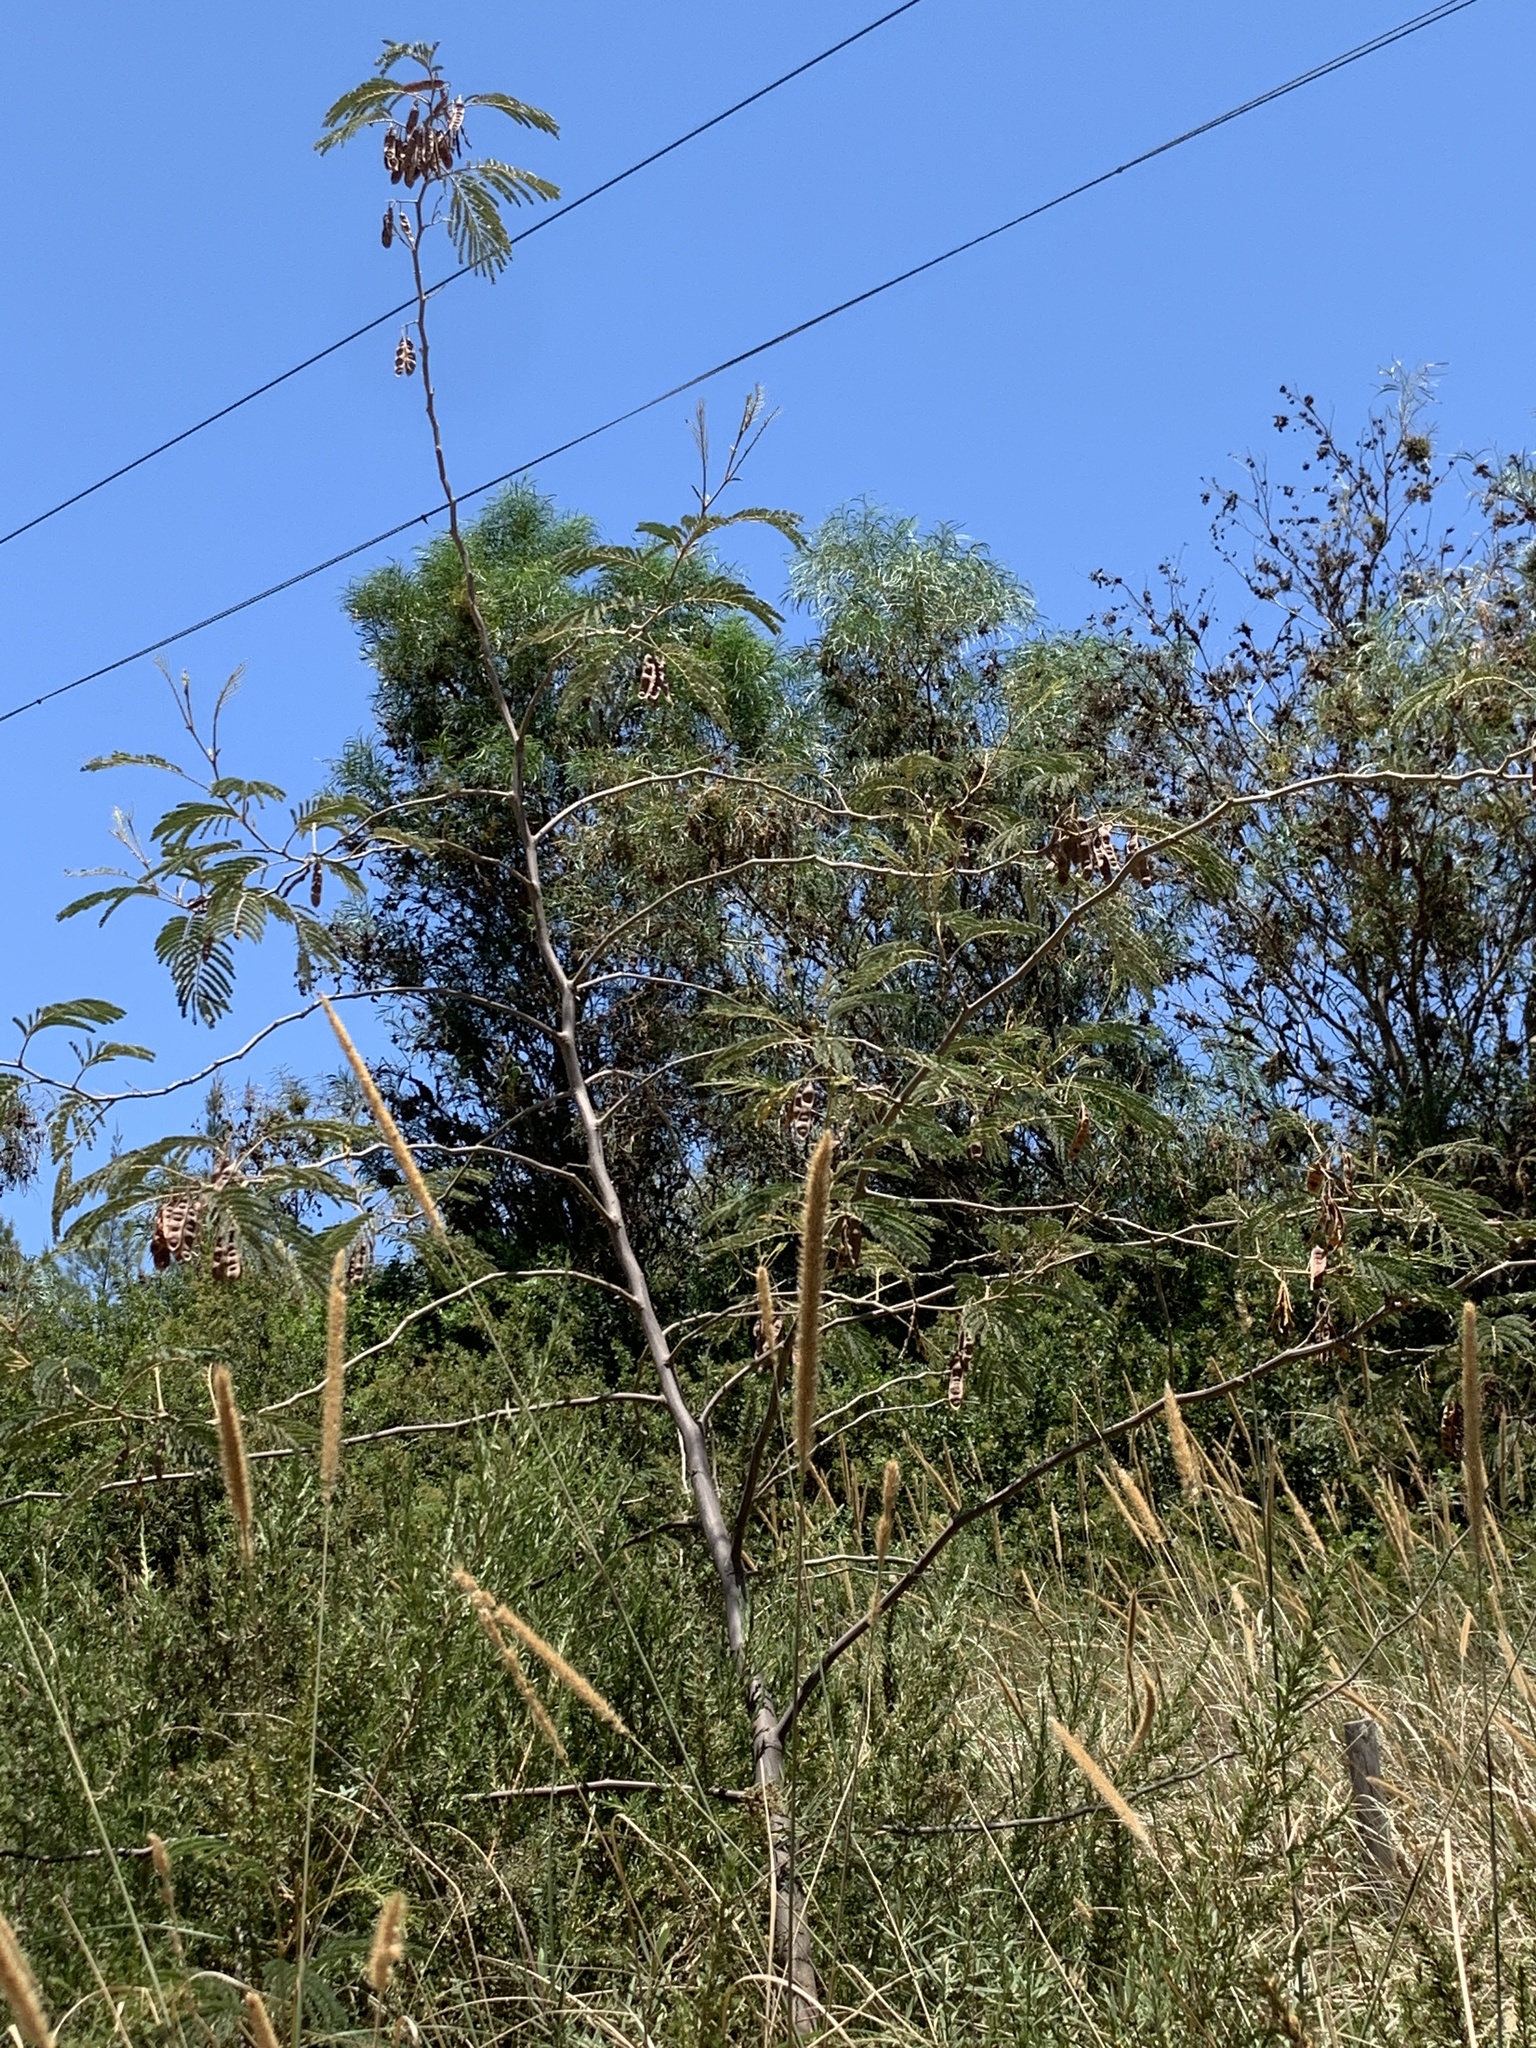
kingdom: Plantae
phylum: Tracheophyta
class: Magnoliopsida
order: Fabales
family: Fabaceae
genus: Paraserianthes
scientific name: Paraserianthes lophantha
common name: Plume albizia
